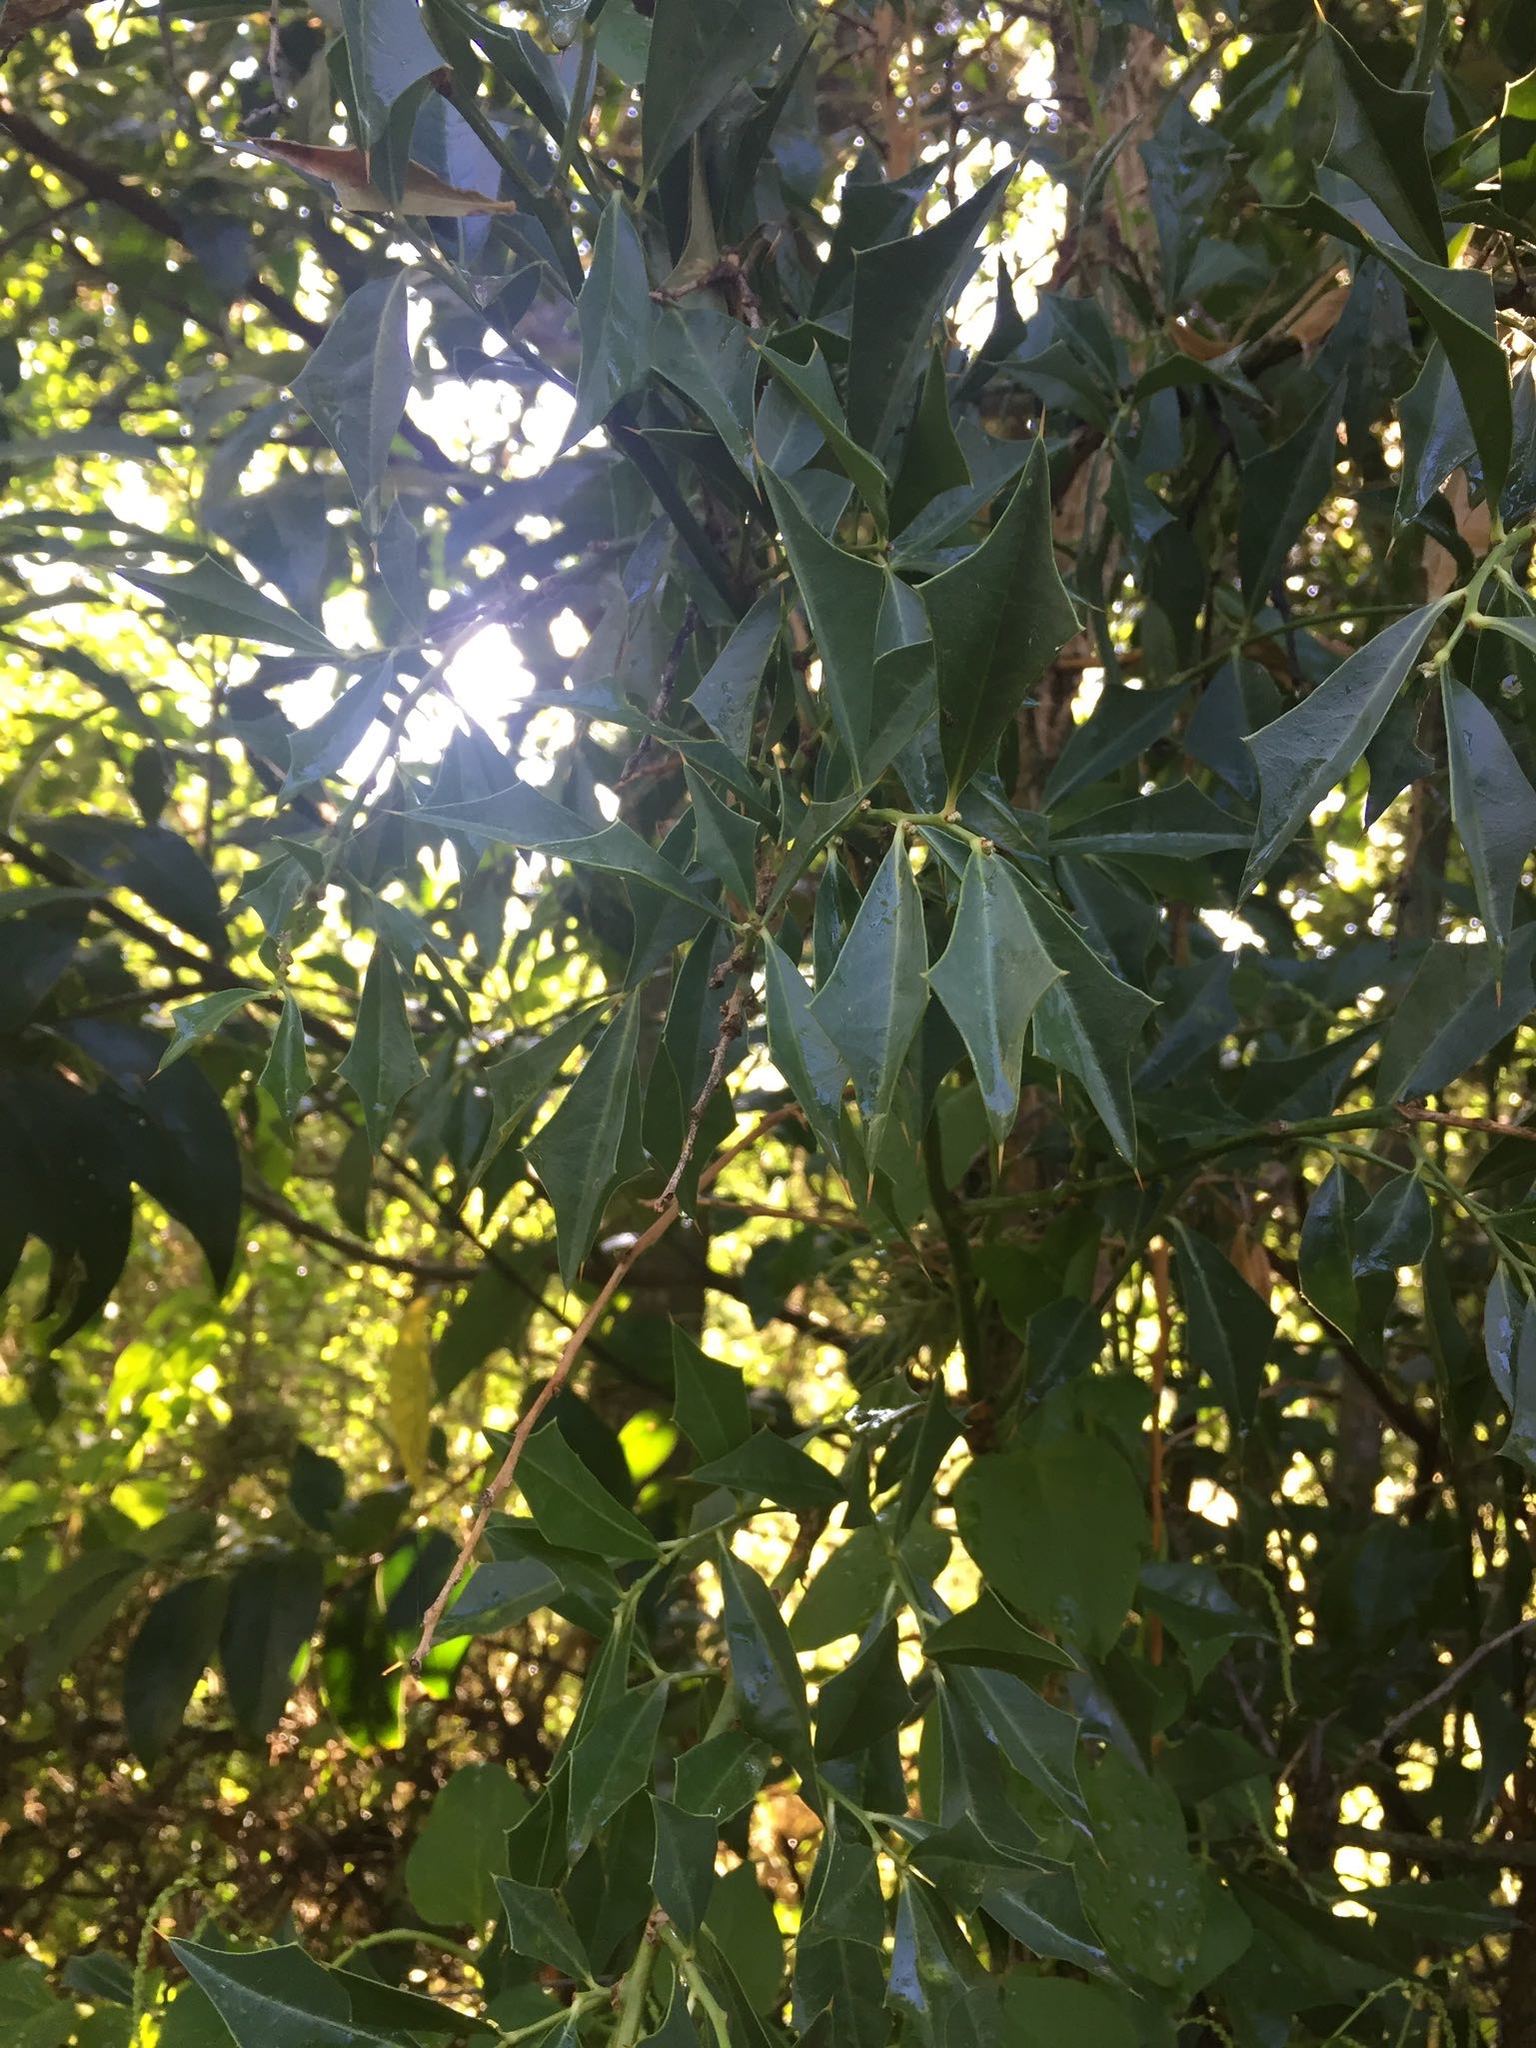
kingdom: Plantae
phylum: Tracheophyta
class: Magnoliopsida
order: Santalales
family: Cervantesiaceae
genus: Jodina
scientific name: Jodina rhombifolia
